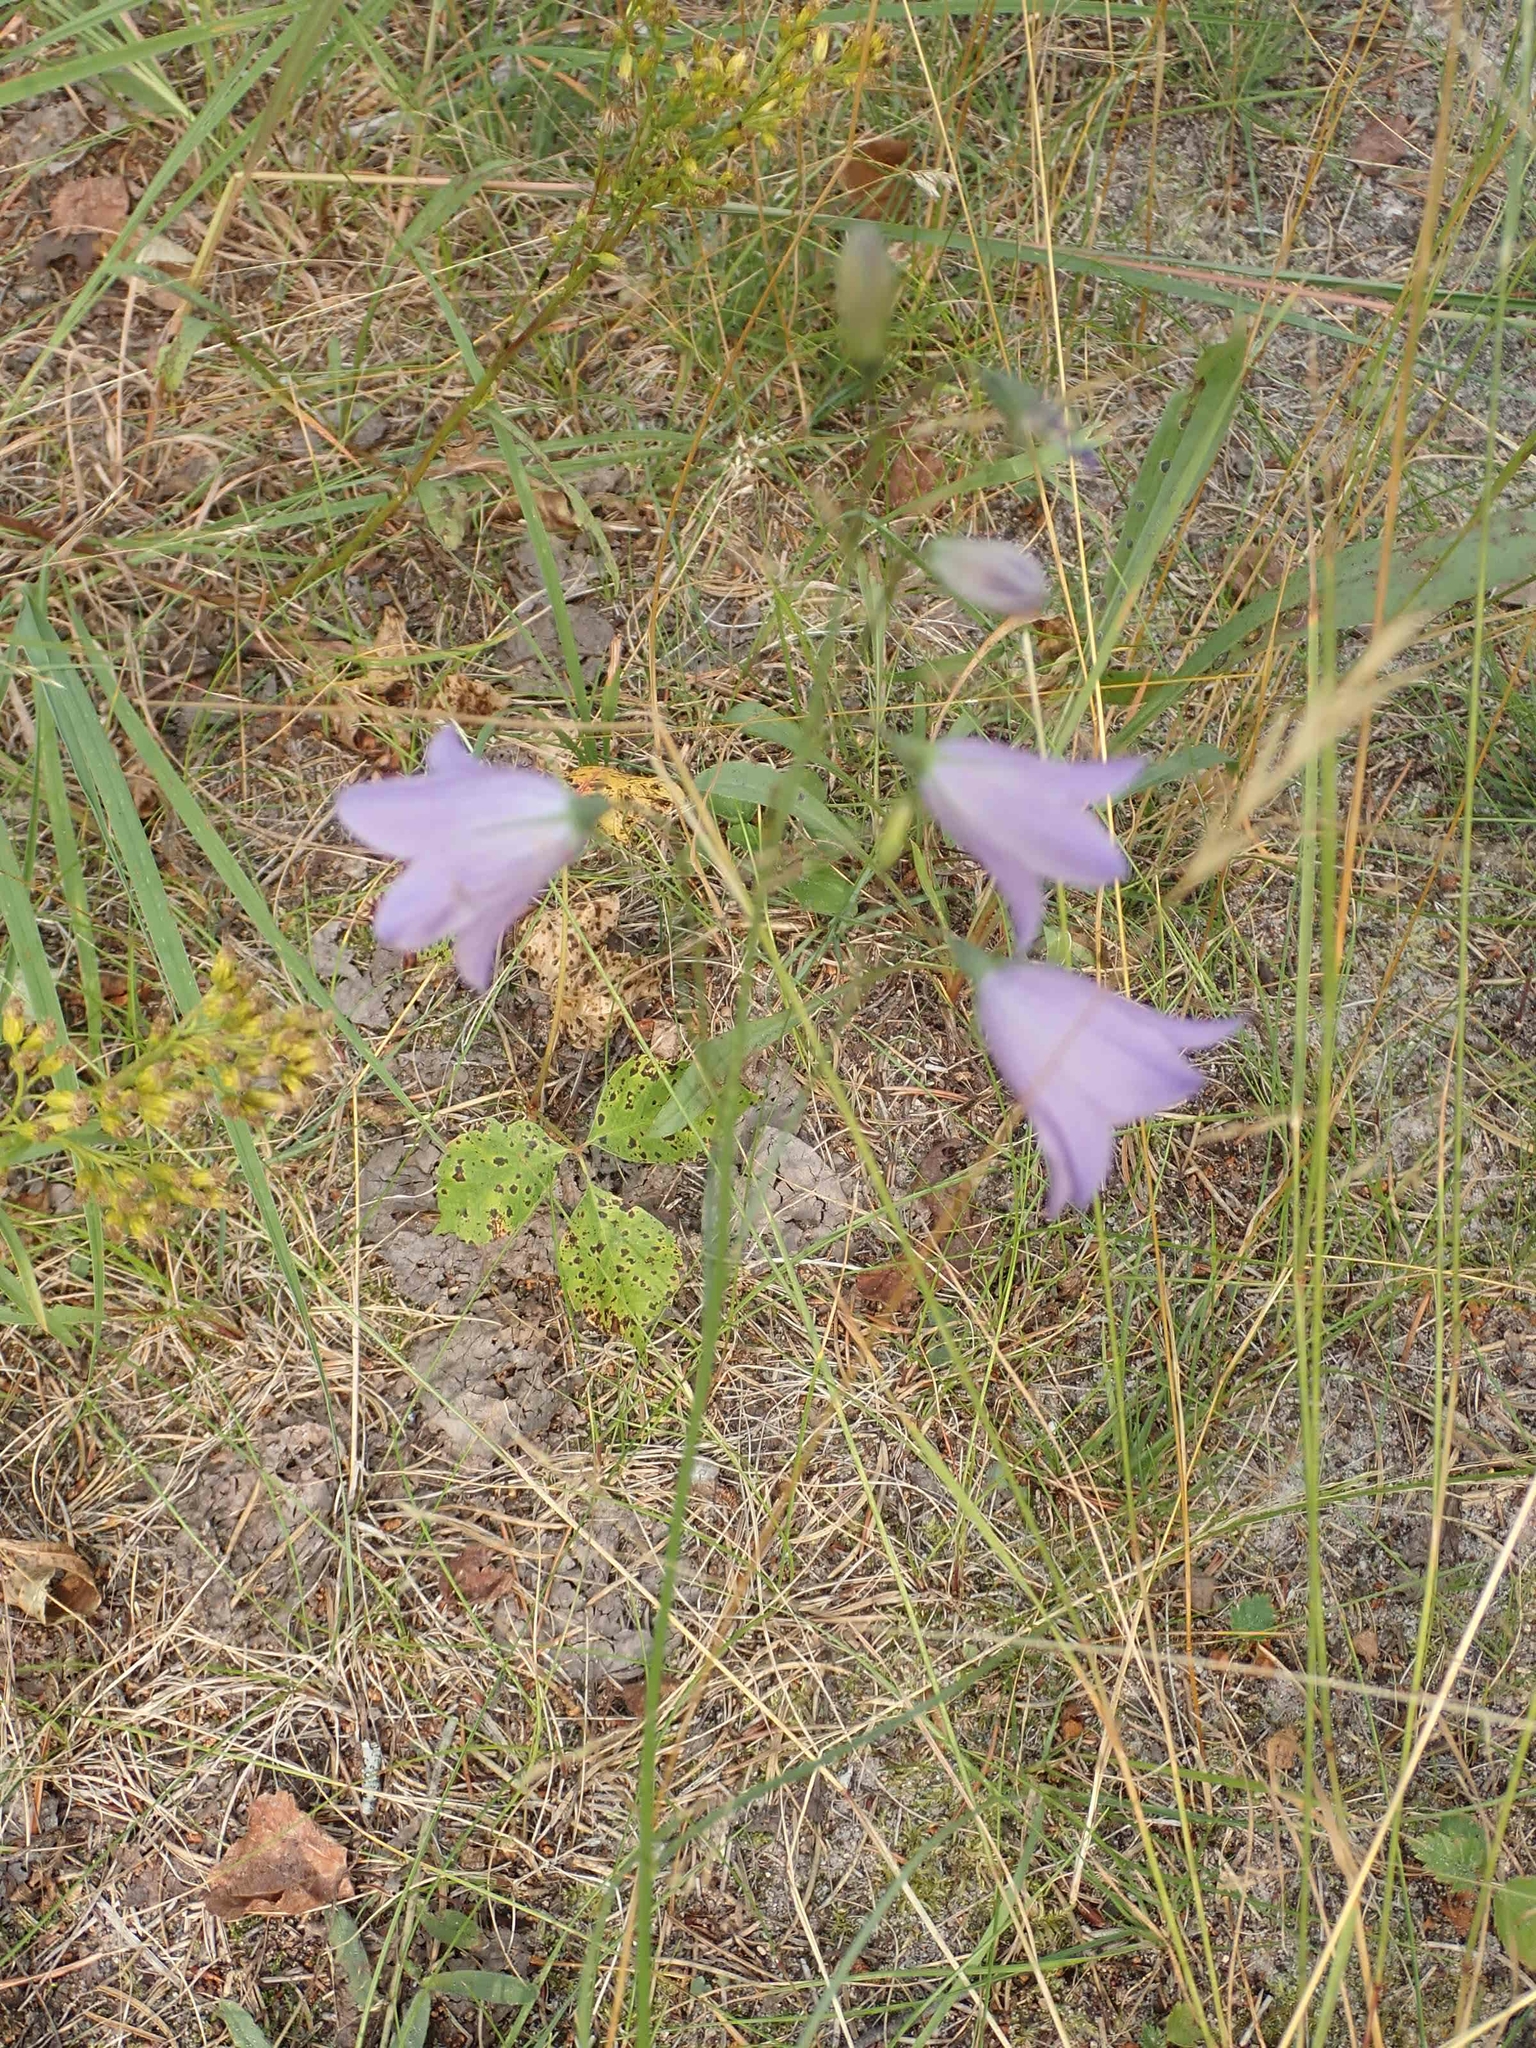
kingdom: Plantae
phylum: Tracheophyta
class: Magnoliopsida
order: Asterales
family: Campanulaceae
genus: Campanula
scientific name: Campanula petiolata
